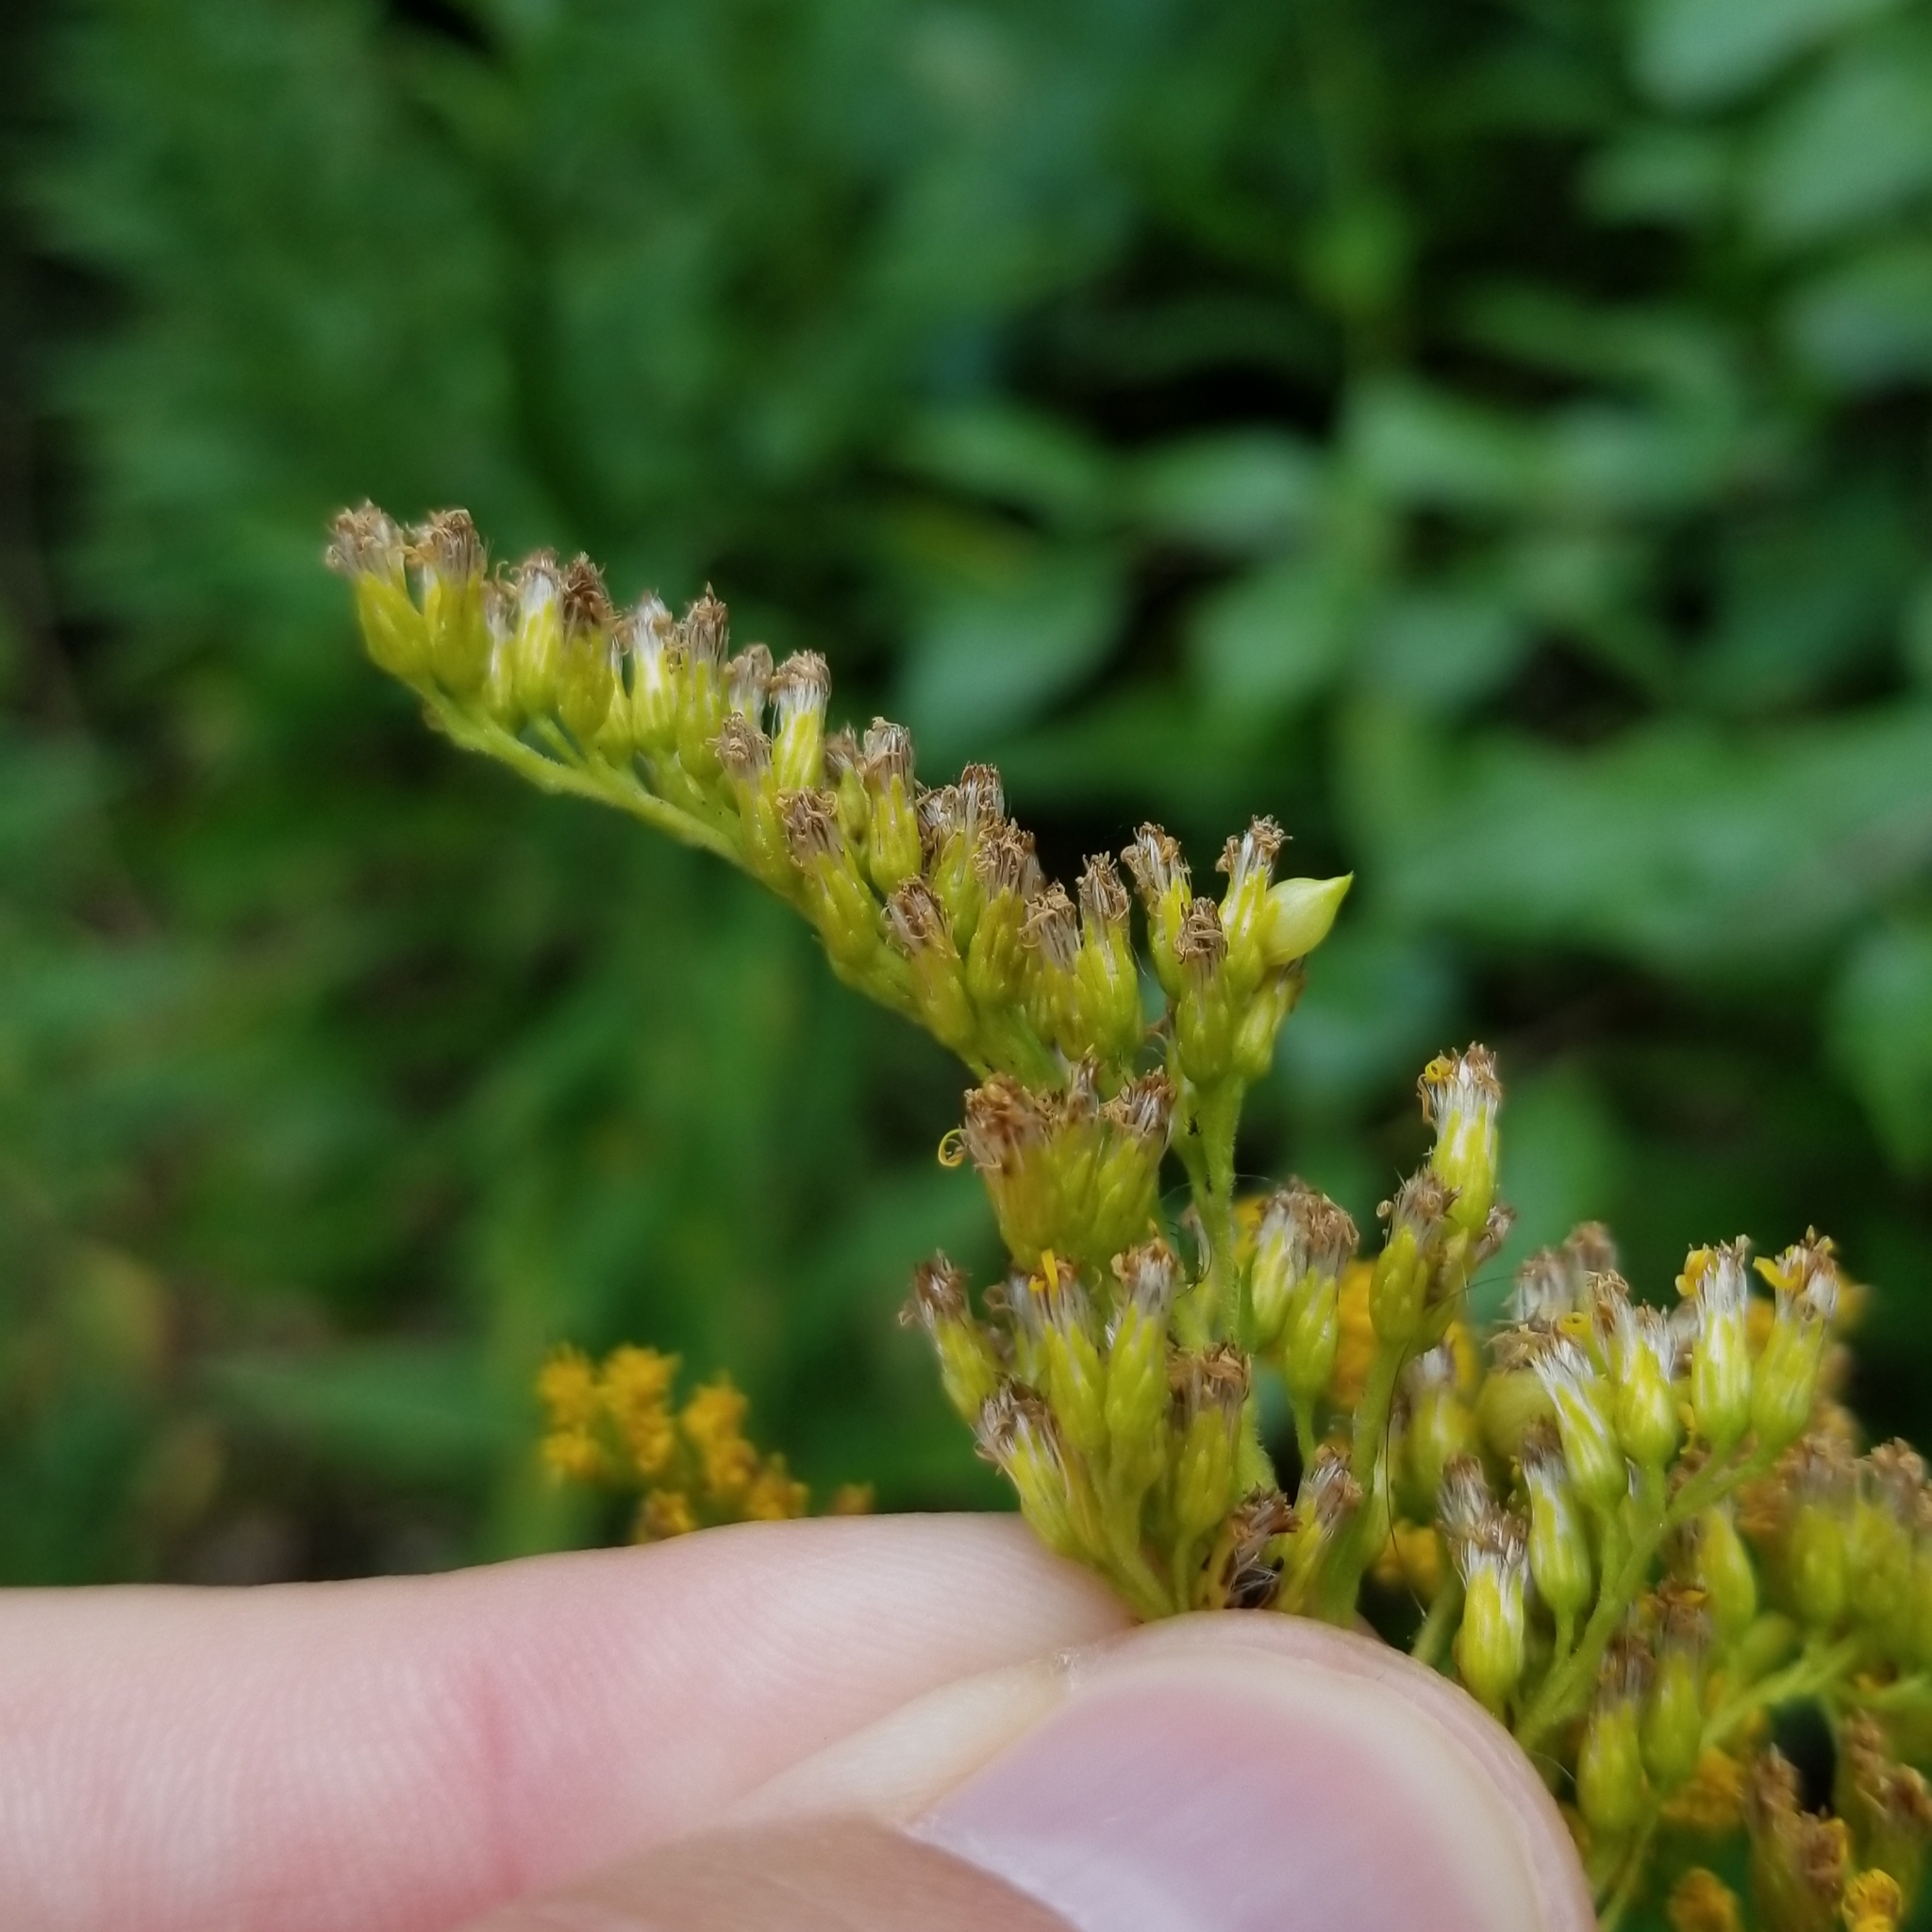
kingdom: Animalia
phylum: Arthropoda
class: Insecta
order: Diptera
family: Cecidomyiidae
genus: Schizomyia
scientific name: Schizomyia racemicola
